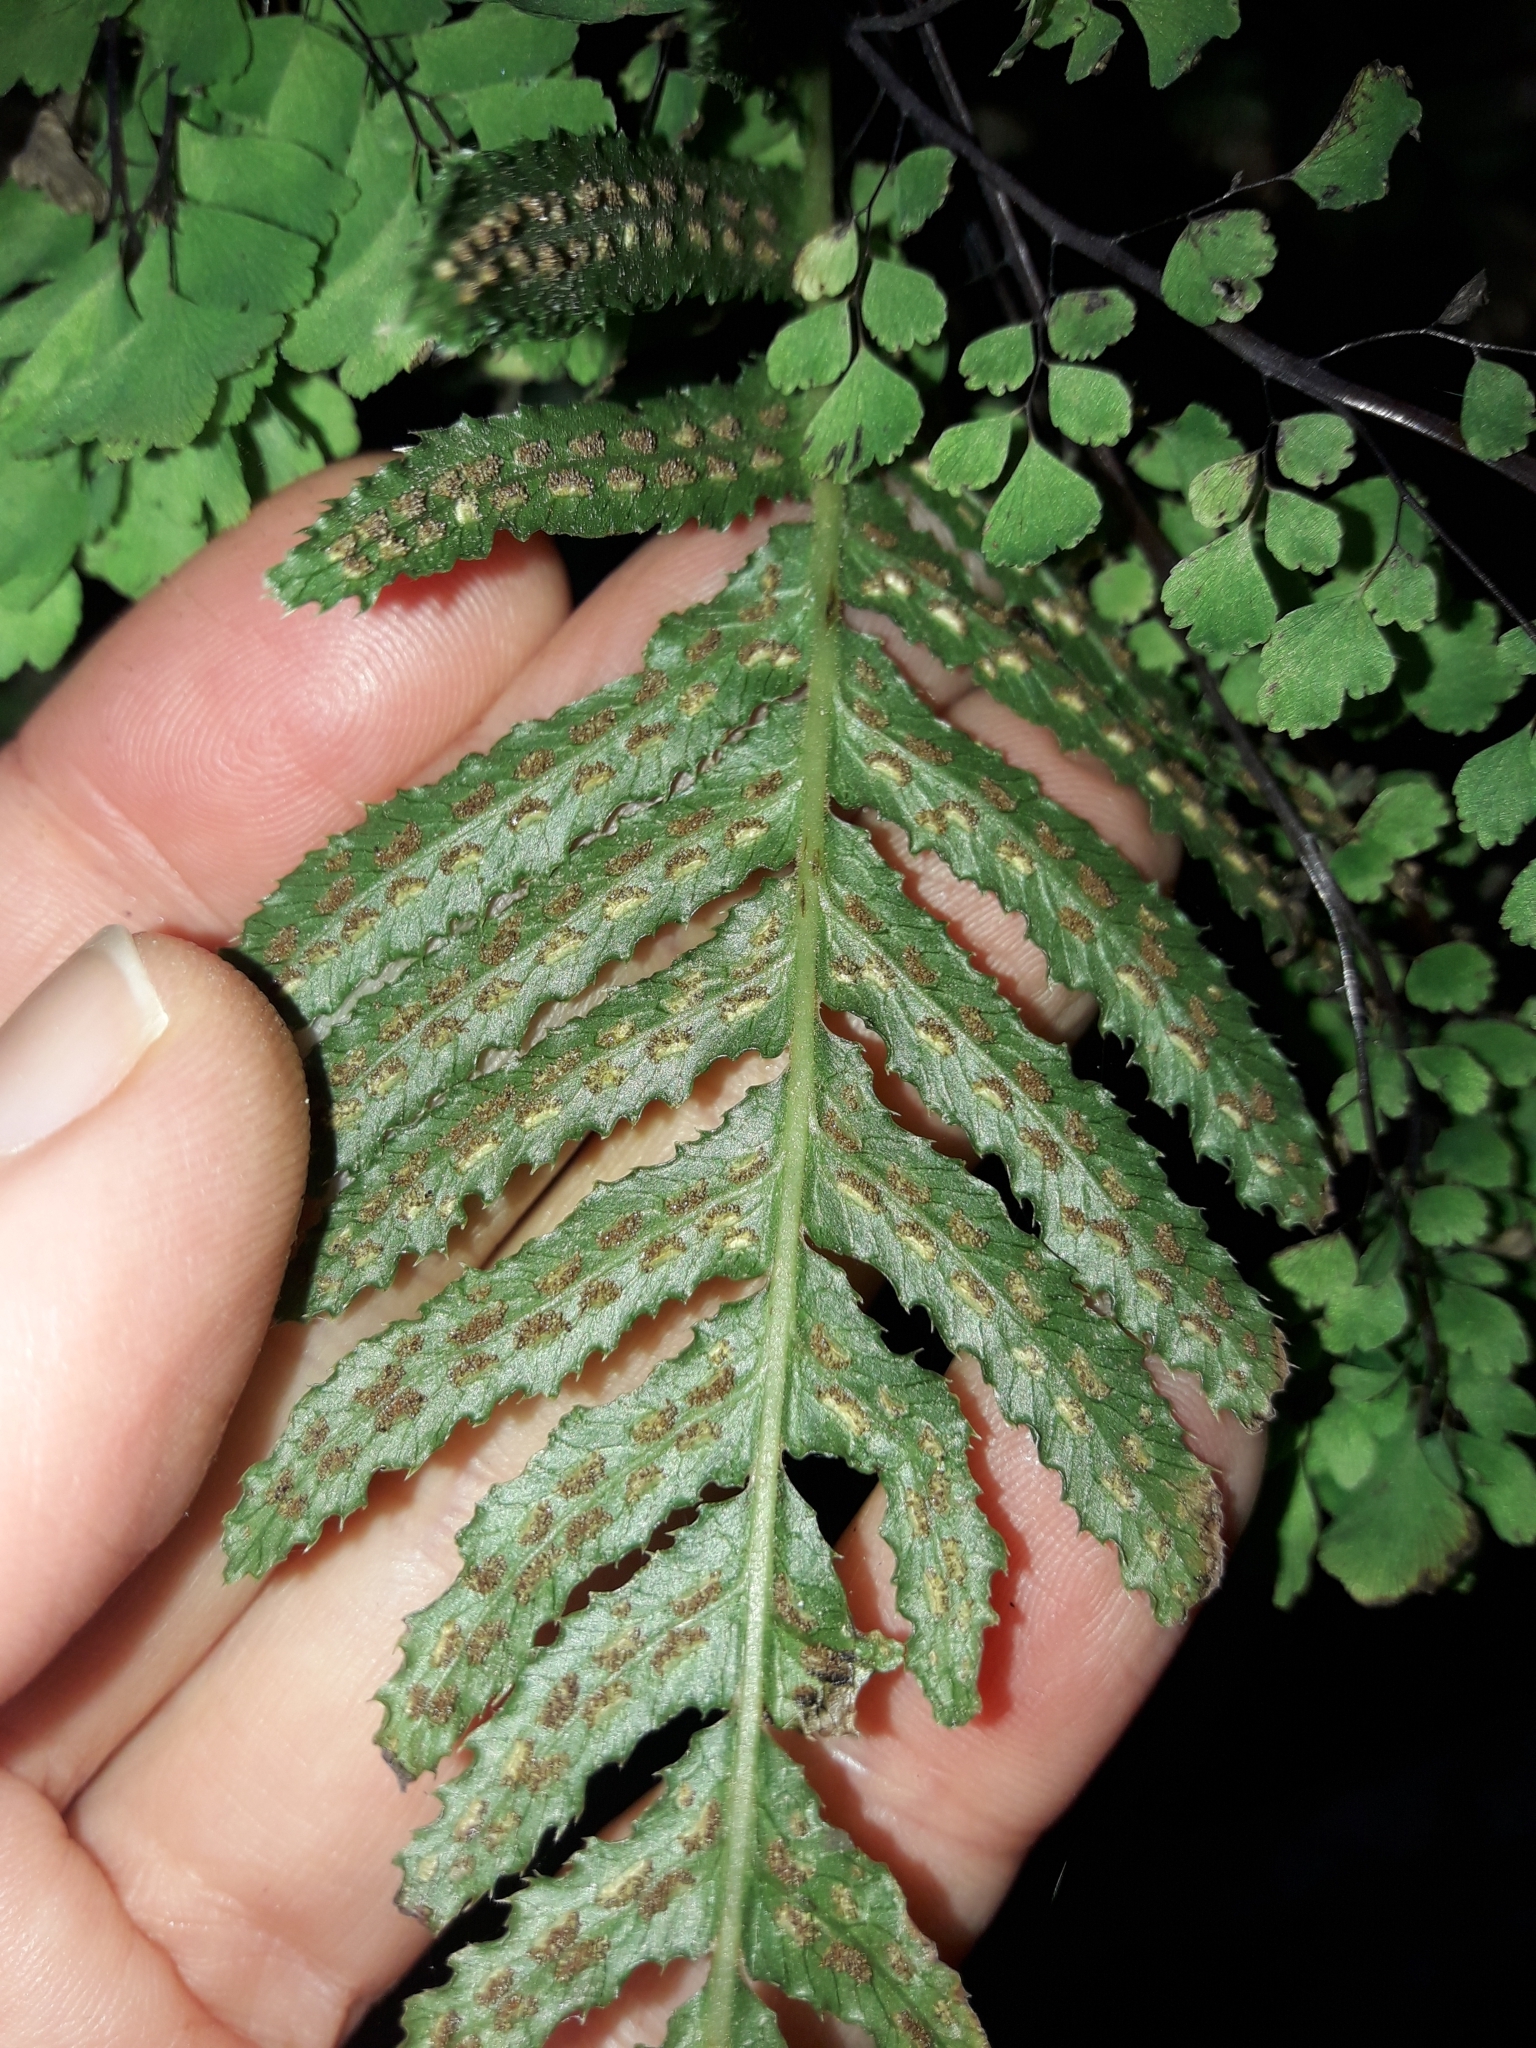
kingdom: Plantae
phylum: Tracheophyta
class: Polypodiopsida
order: Polypodiales
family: Blechnaceae
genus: Doodia
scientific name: Doodia australis
